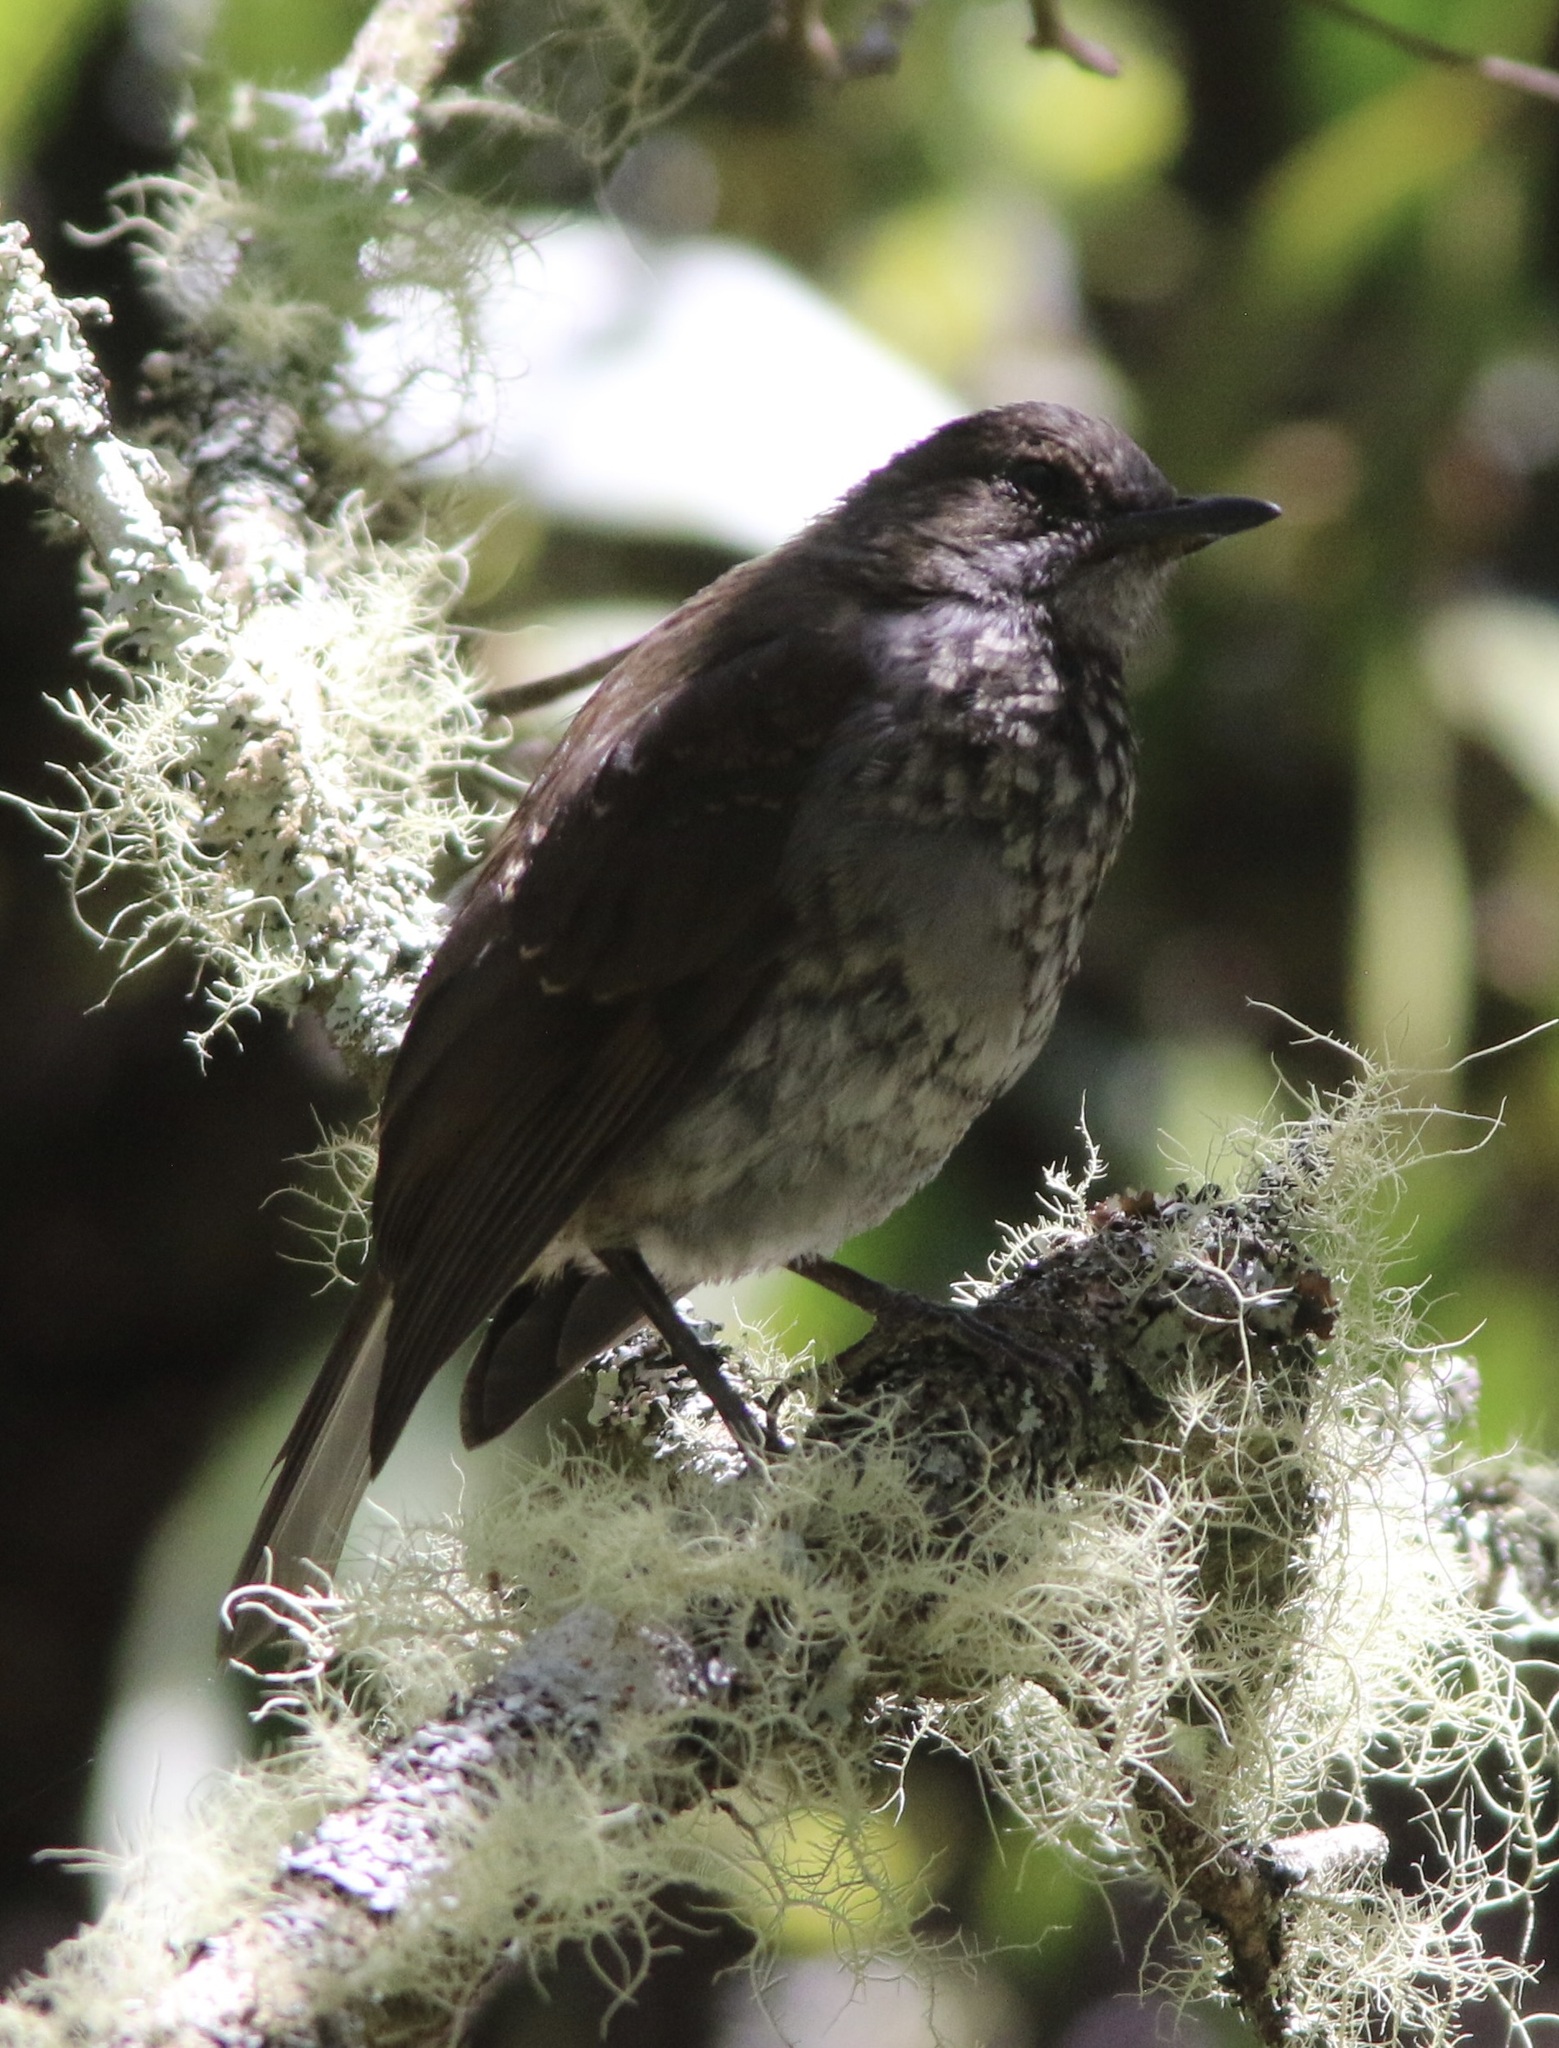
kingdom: Animalia
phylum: Chordata
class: Aves
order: Passeriformes
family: Turdidae
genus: Myadestes
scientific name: Myadestes obscurus
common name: Omao
